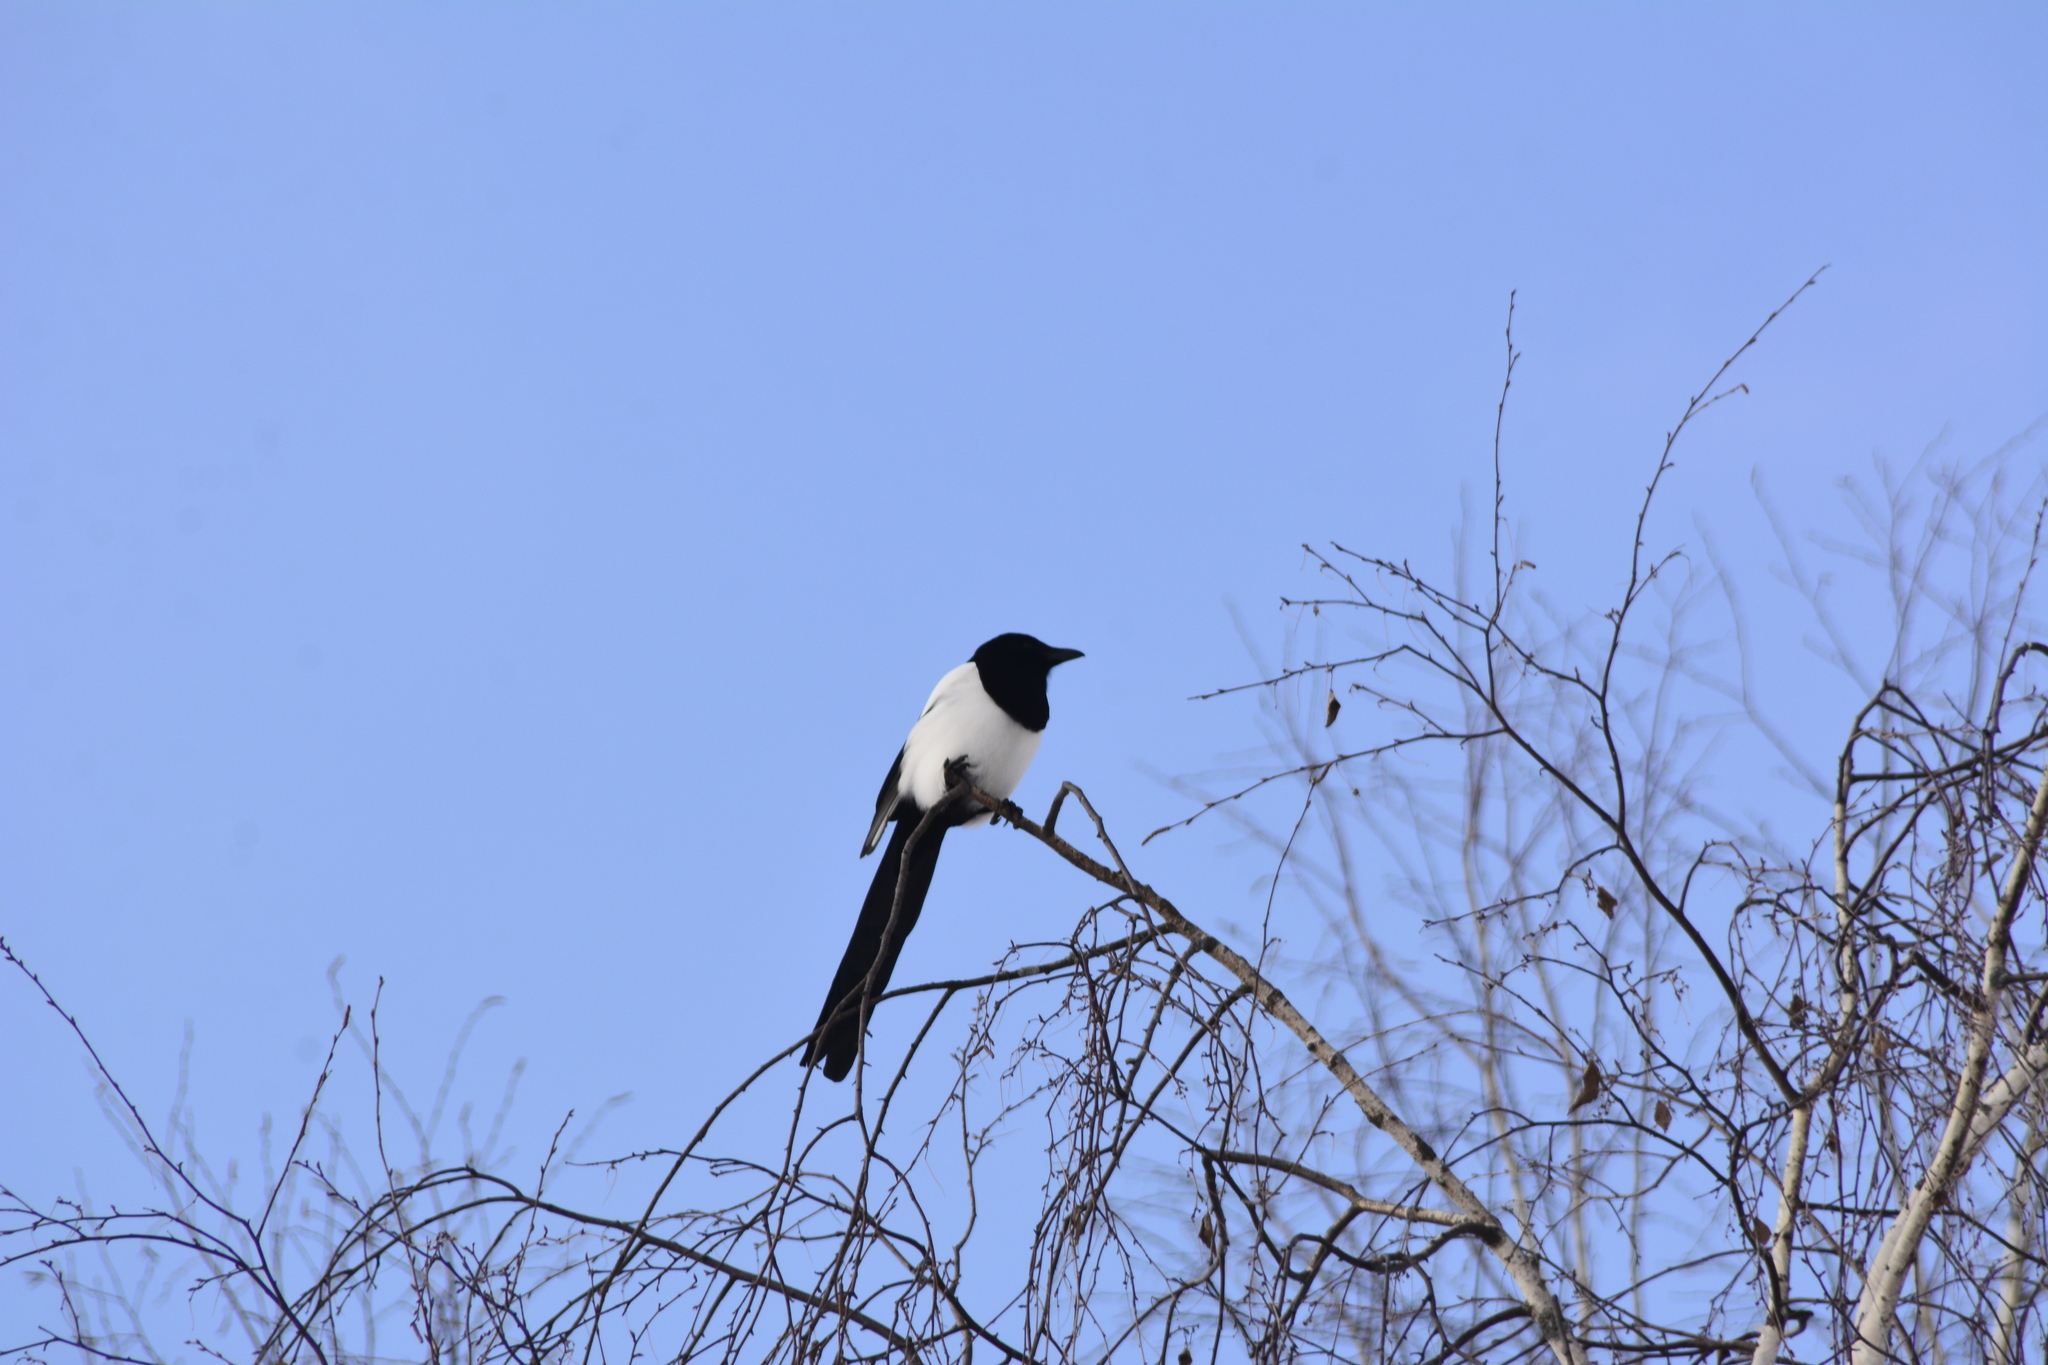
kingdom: Animalia
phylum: Chordata
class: Aves
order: Passeriformes
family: Corvidae
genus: Pica
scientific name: Pica pica
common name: Eurasian magpie
